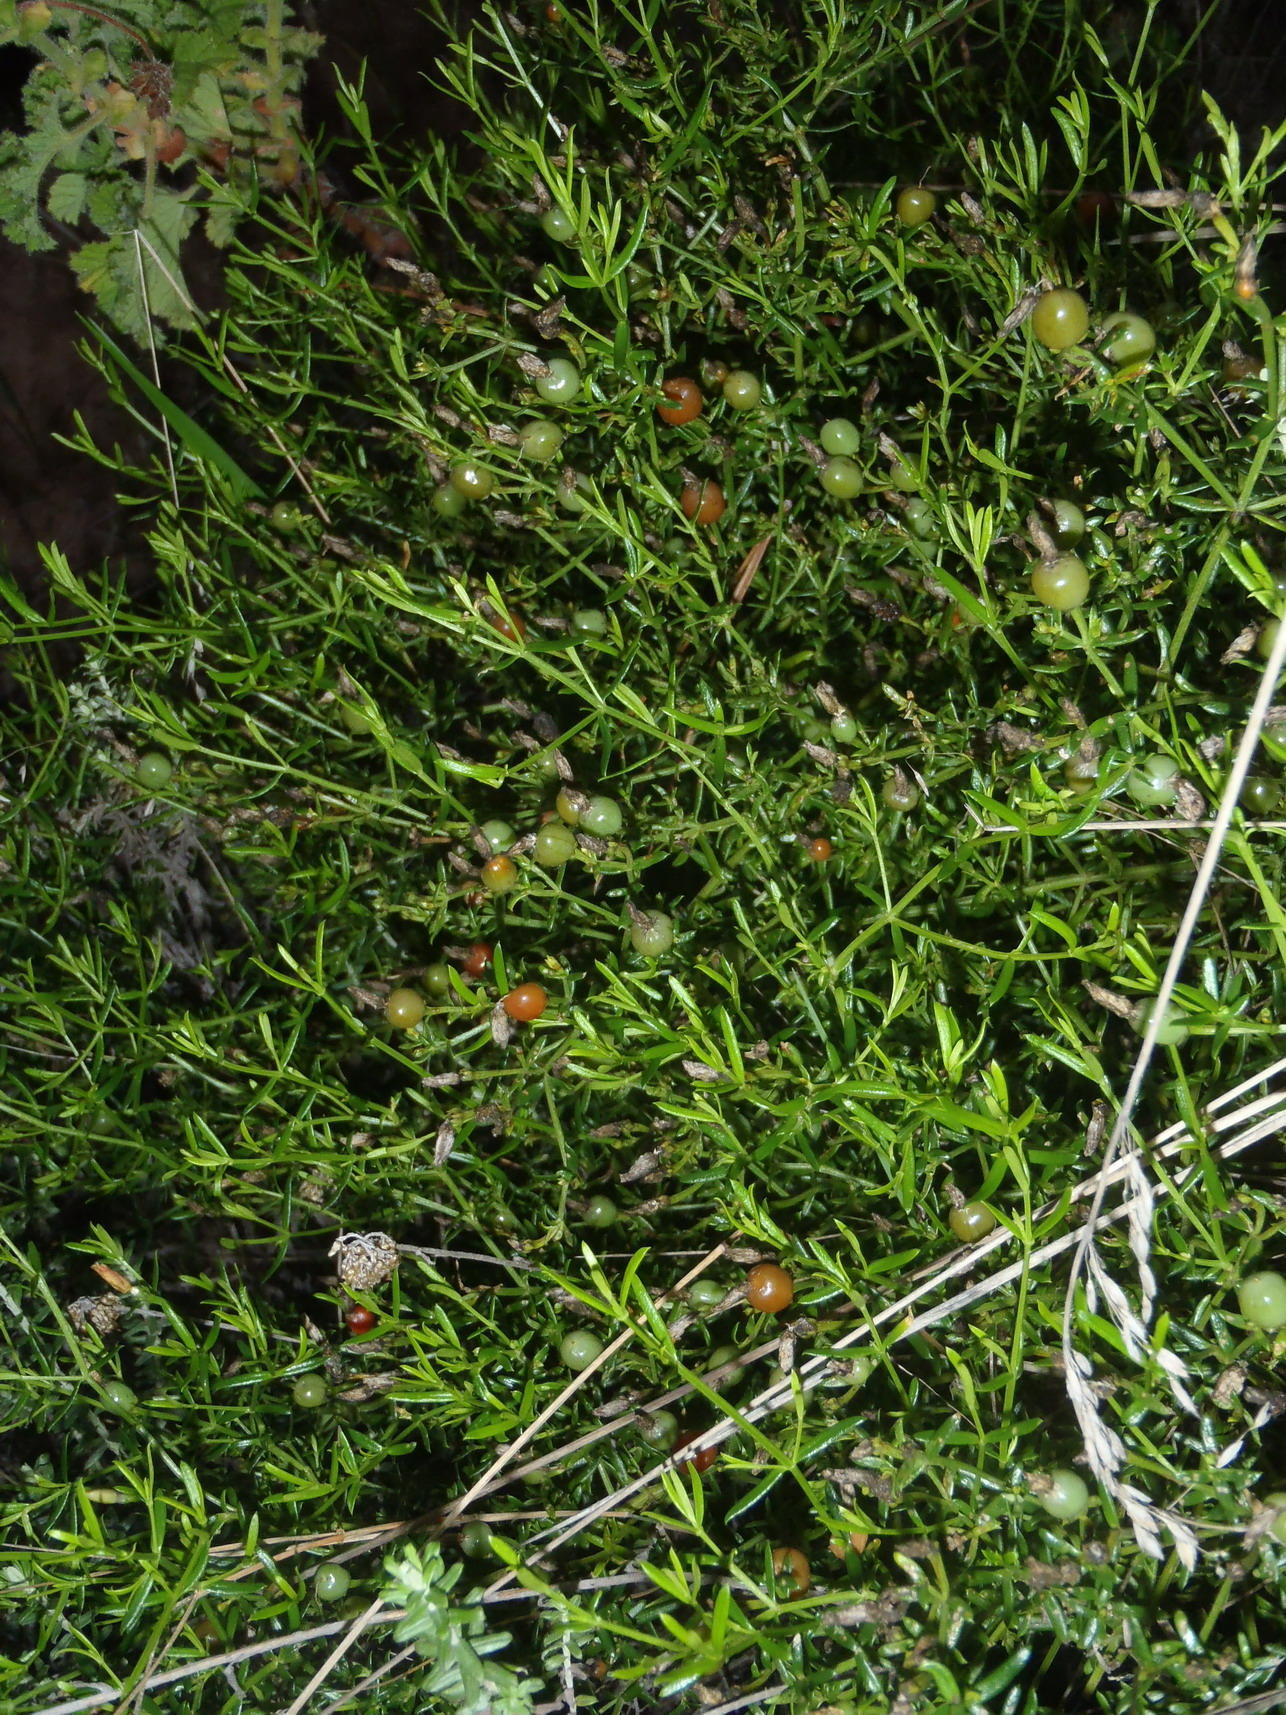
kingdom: Plantae
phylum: Tracheophyta
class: Magnoliopsida
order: Gentianales
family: Gentianaceae
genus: Chironia
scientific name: Chironia baccifera
